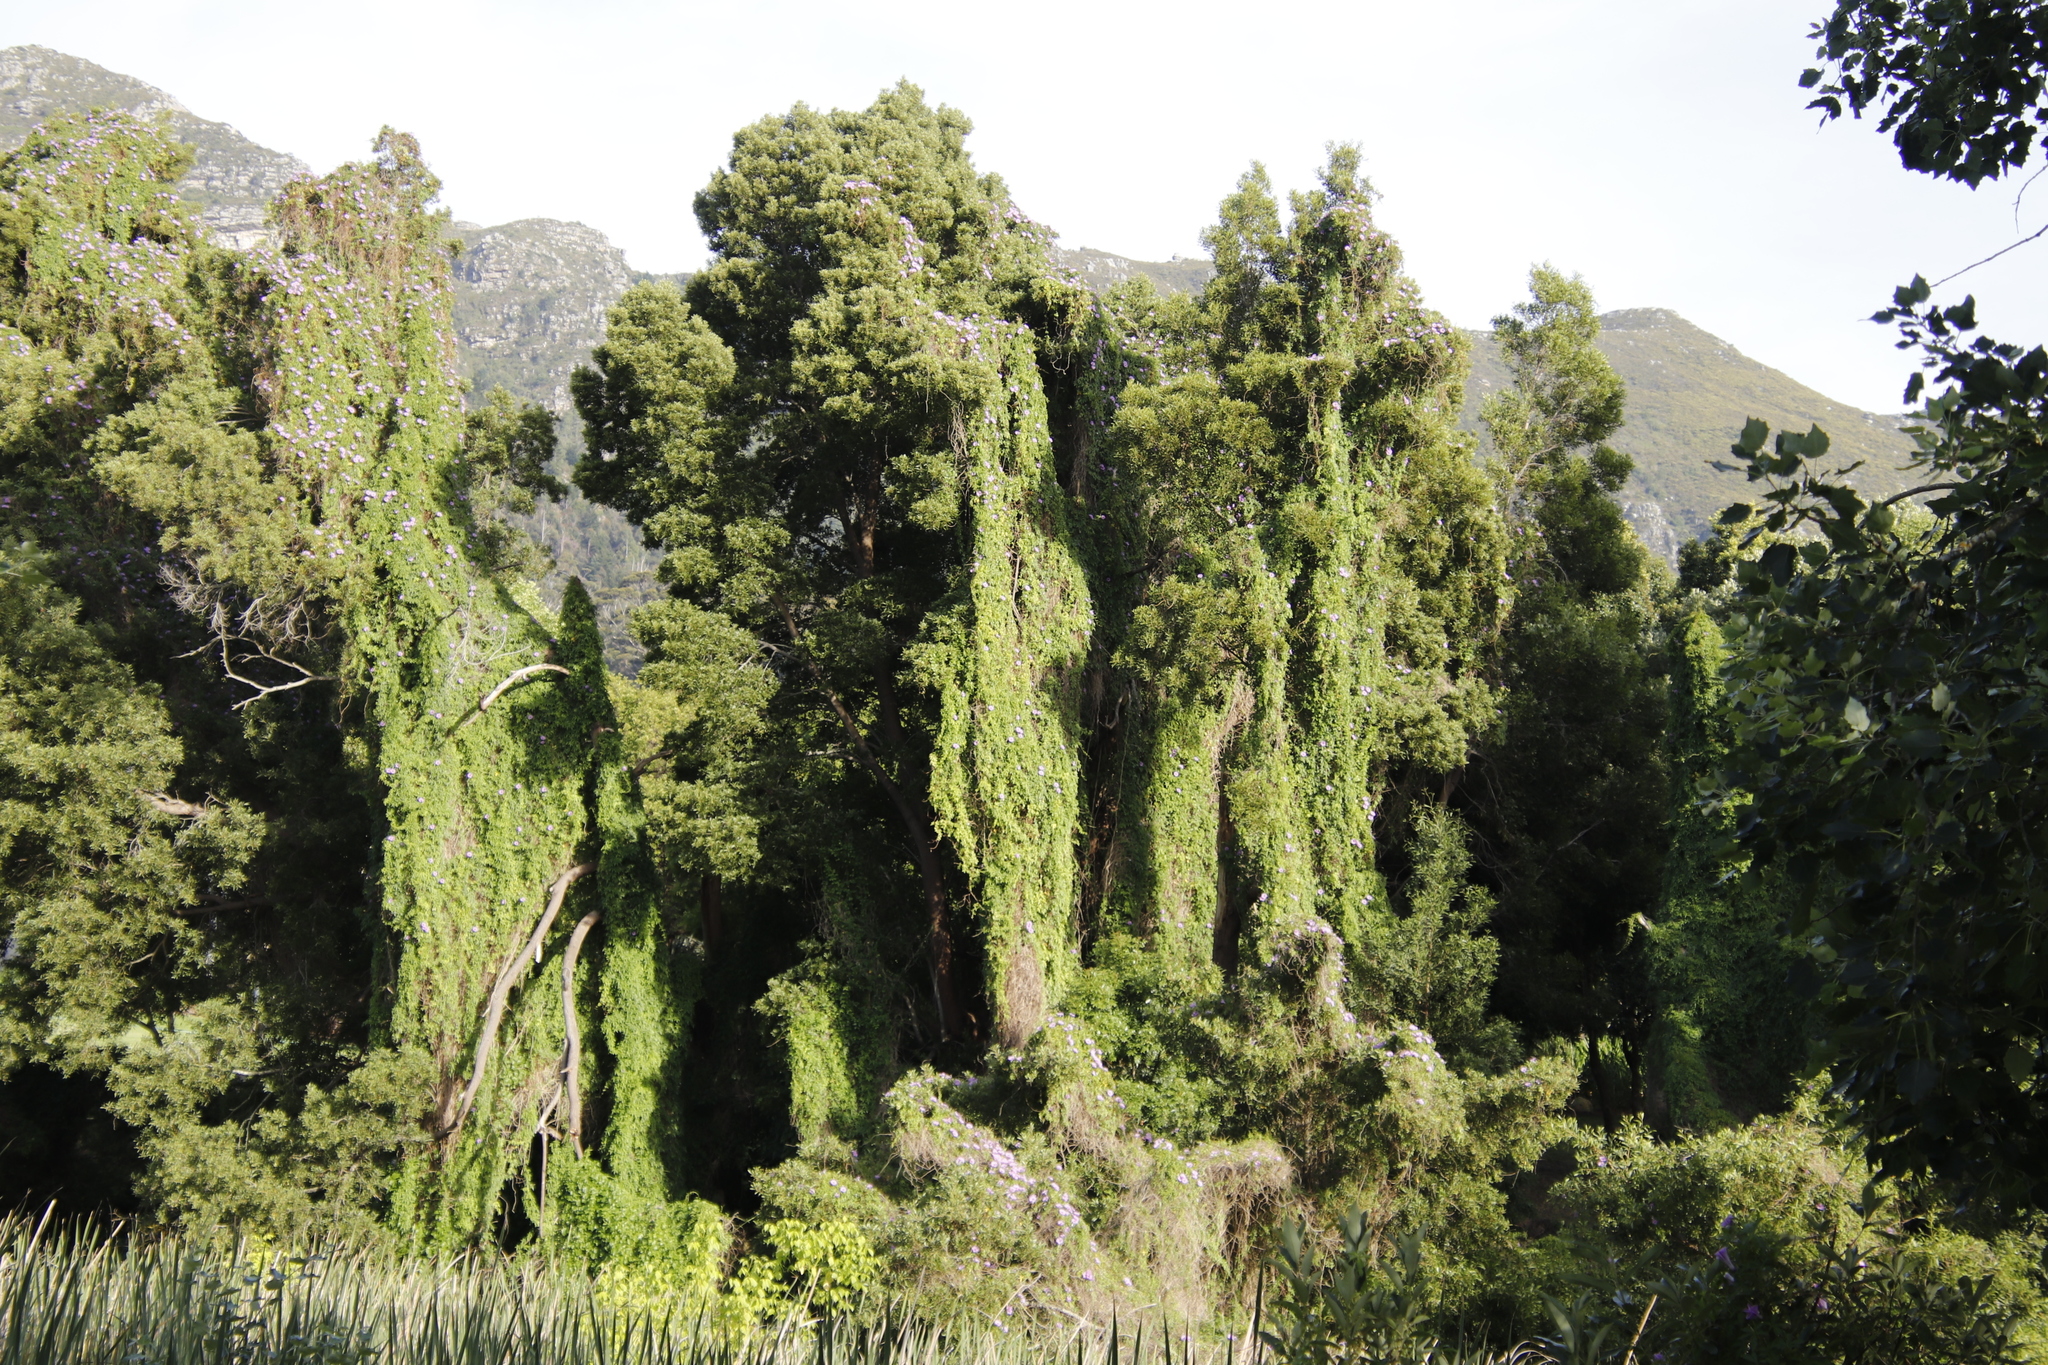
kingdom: Plantae
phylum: Tracheophyta
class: Magnoliopsida
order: Solanales
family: Convolvulaceae
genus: Ipomoea
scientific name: Ipomoea cairica
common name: Mile a minute vine
